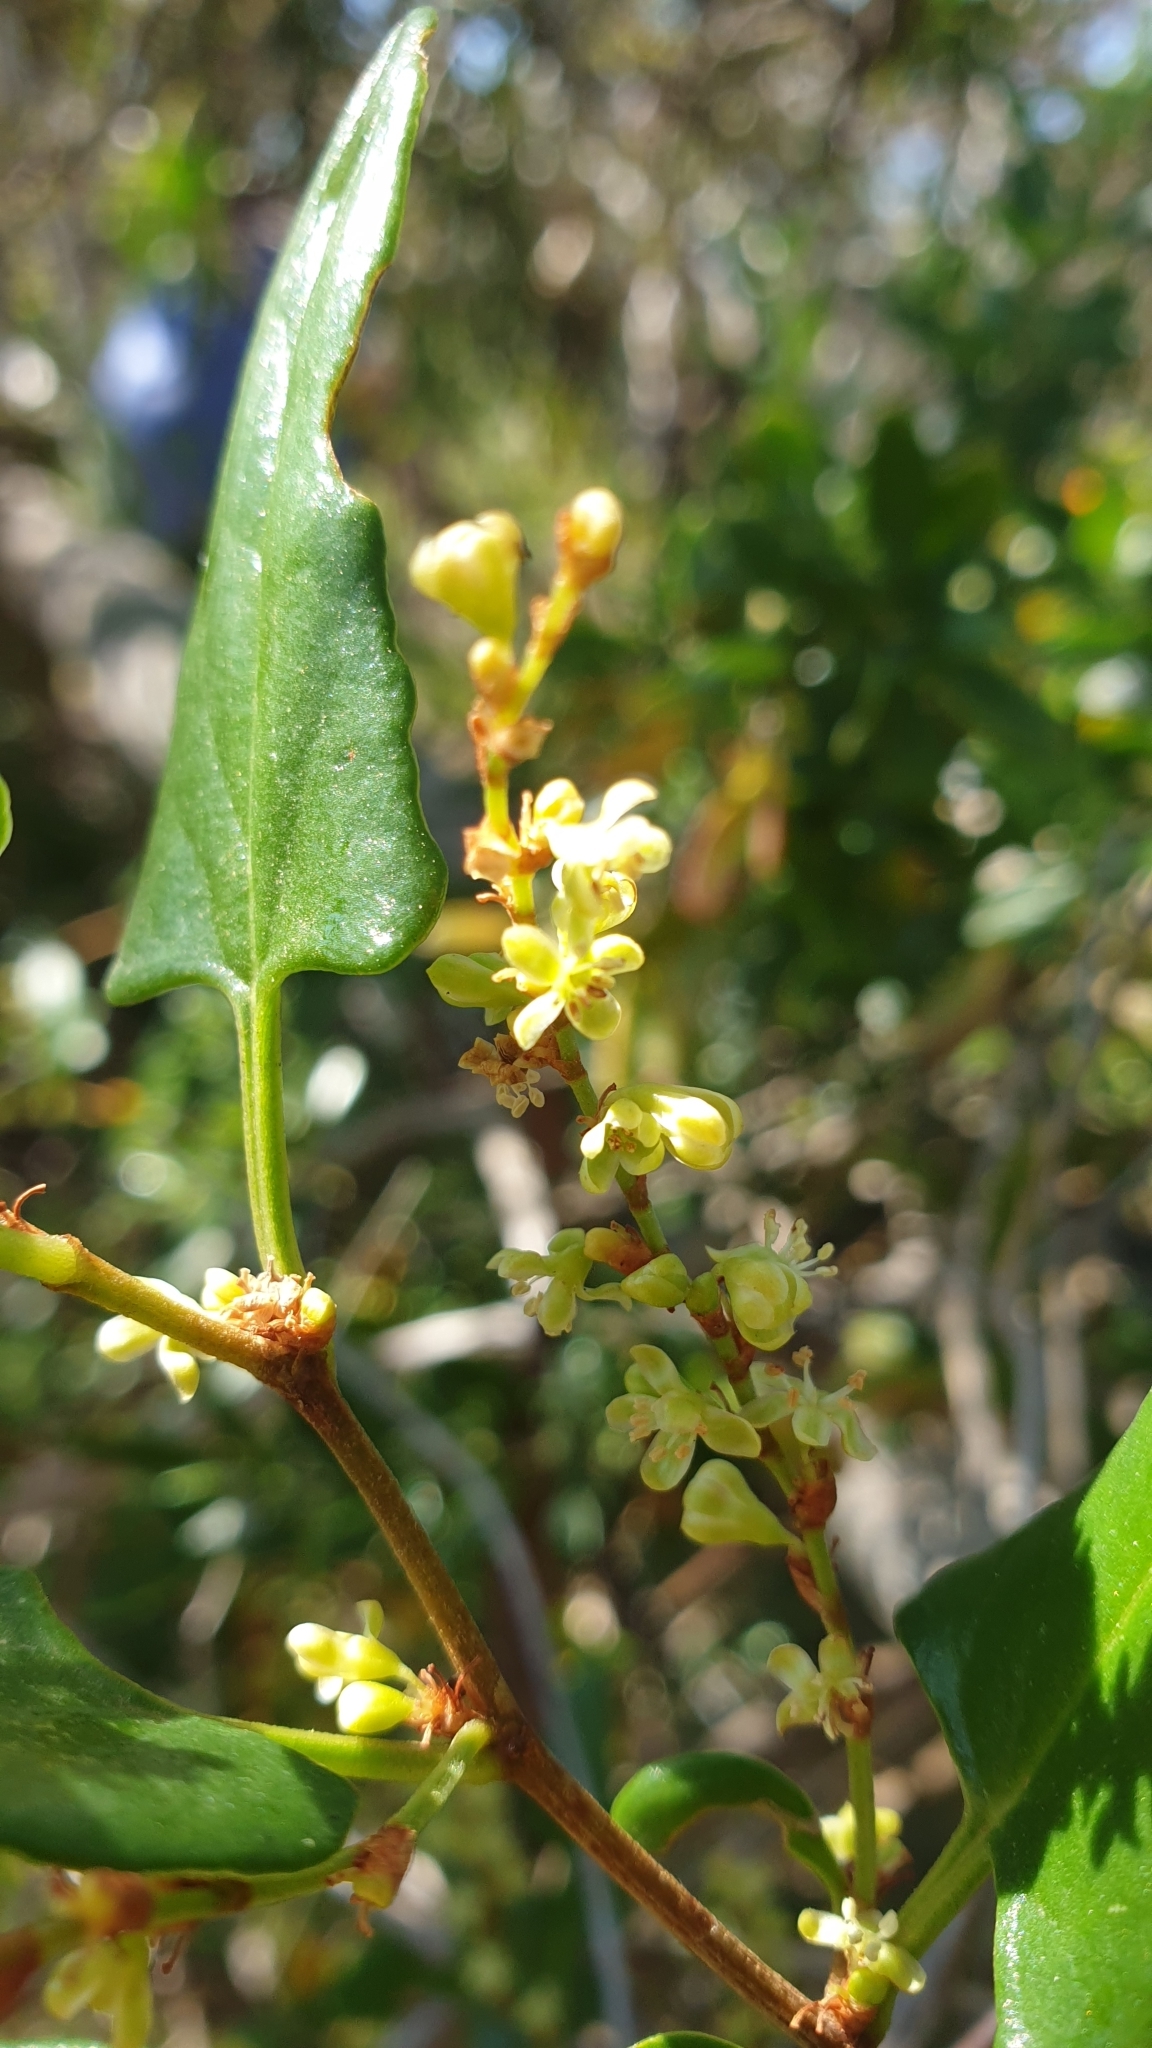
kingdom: Plantae
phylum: Tracheophyta
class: Magnoliopsida
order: Caryophyllales
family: Polygonaceae
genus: Muehlenbeckia
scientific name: Muehlenbeckia gunnii
